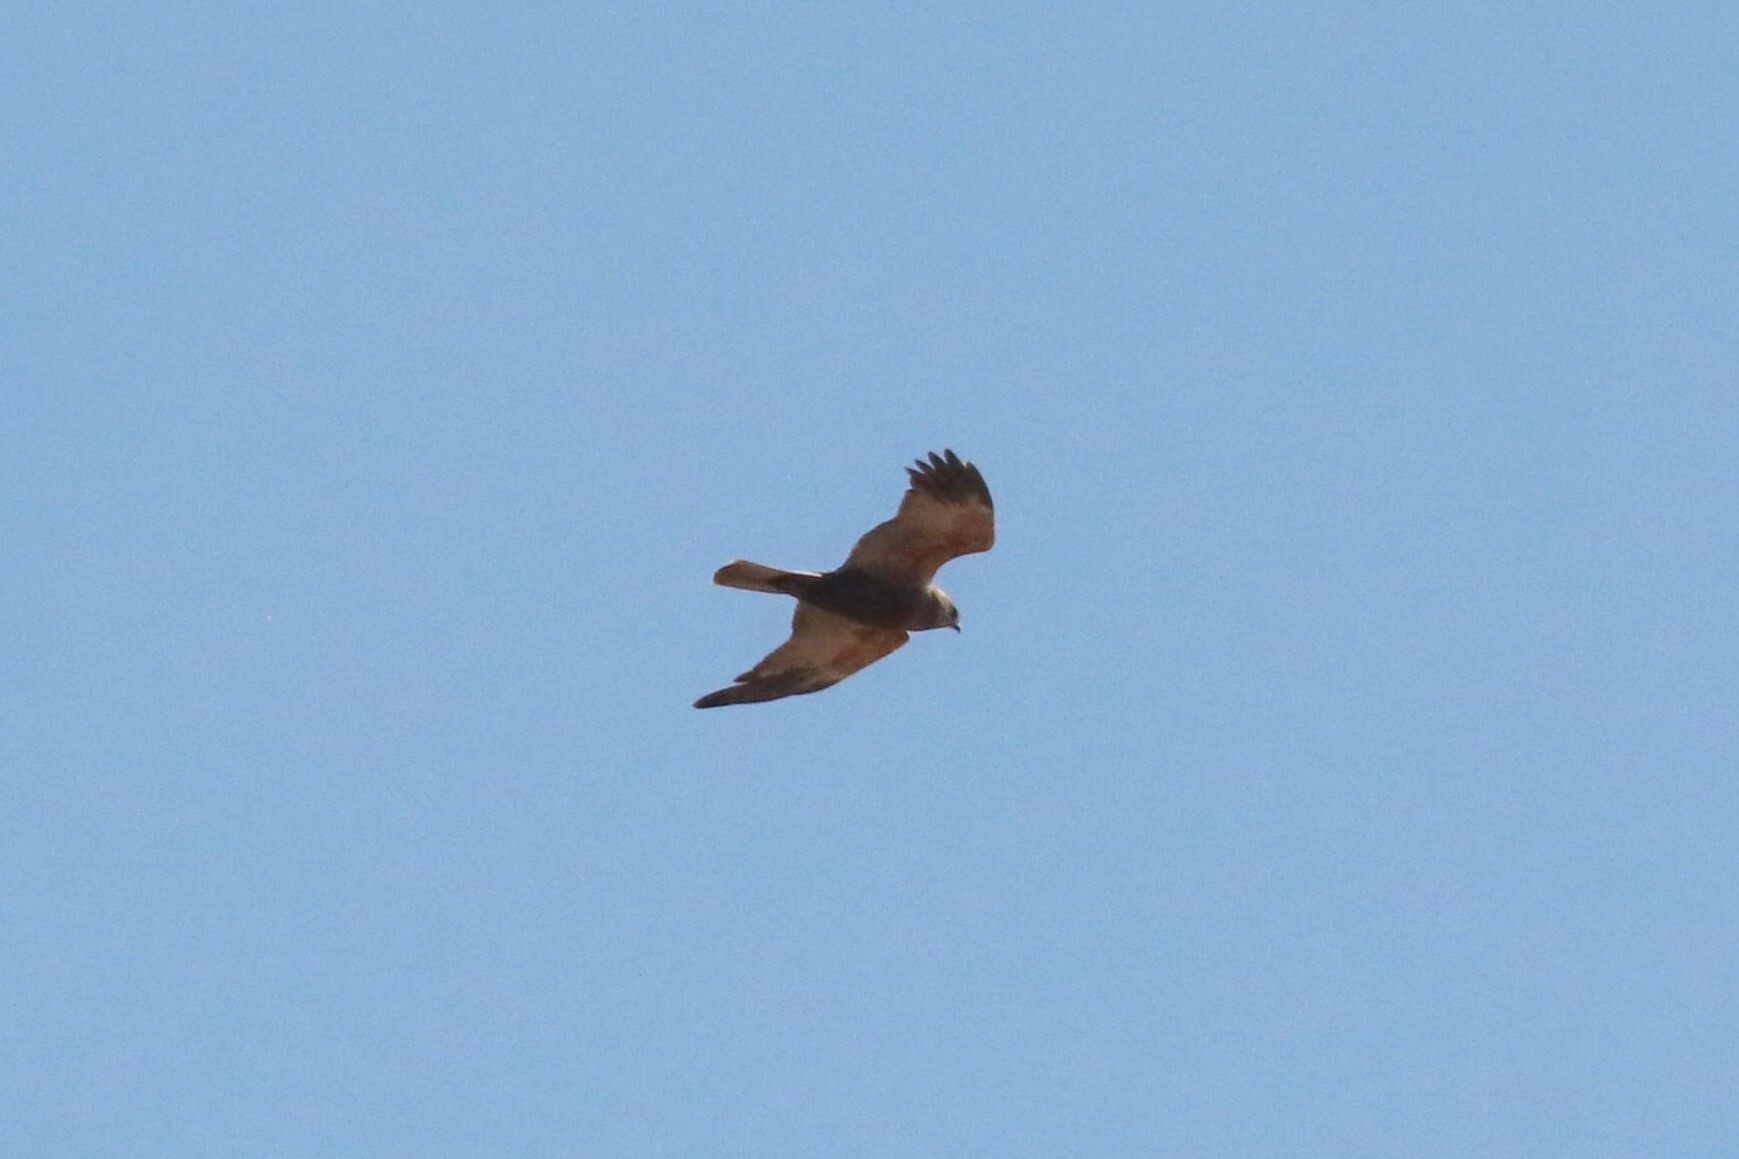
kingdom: Animalia
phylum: Chordata
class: Aves
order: Accipitriformes
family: Accipitridae
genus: Circus
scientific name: Circus aeruginosus
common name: Western marsh harrier
